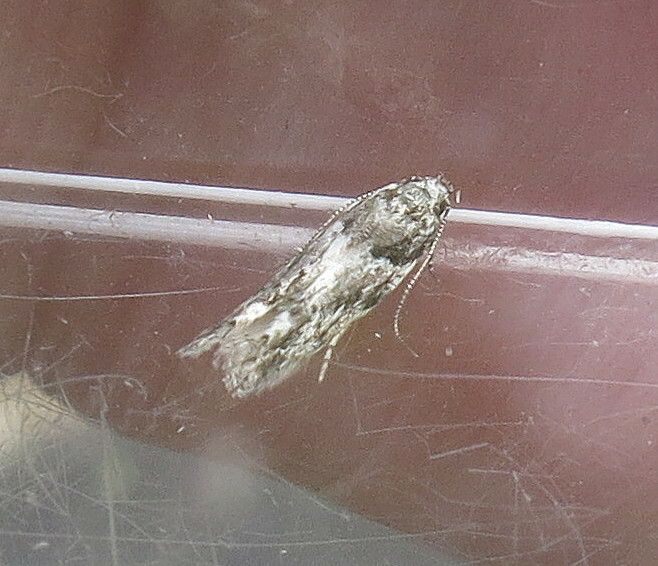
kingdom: Animalia
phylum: Arthropoda
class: Insecta
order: Lepidoptera
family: Gelechiidae
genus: Recurvaria
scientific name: Recurvaria nanella
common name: Gelechiid moth
